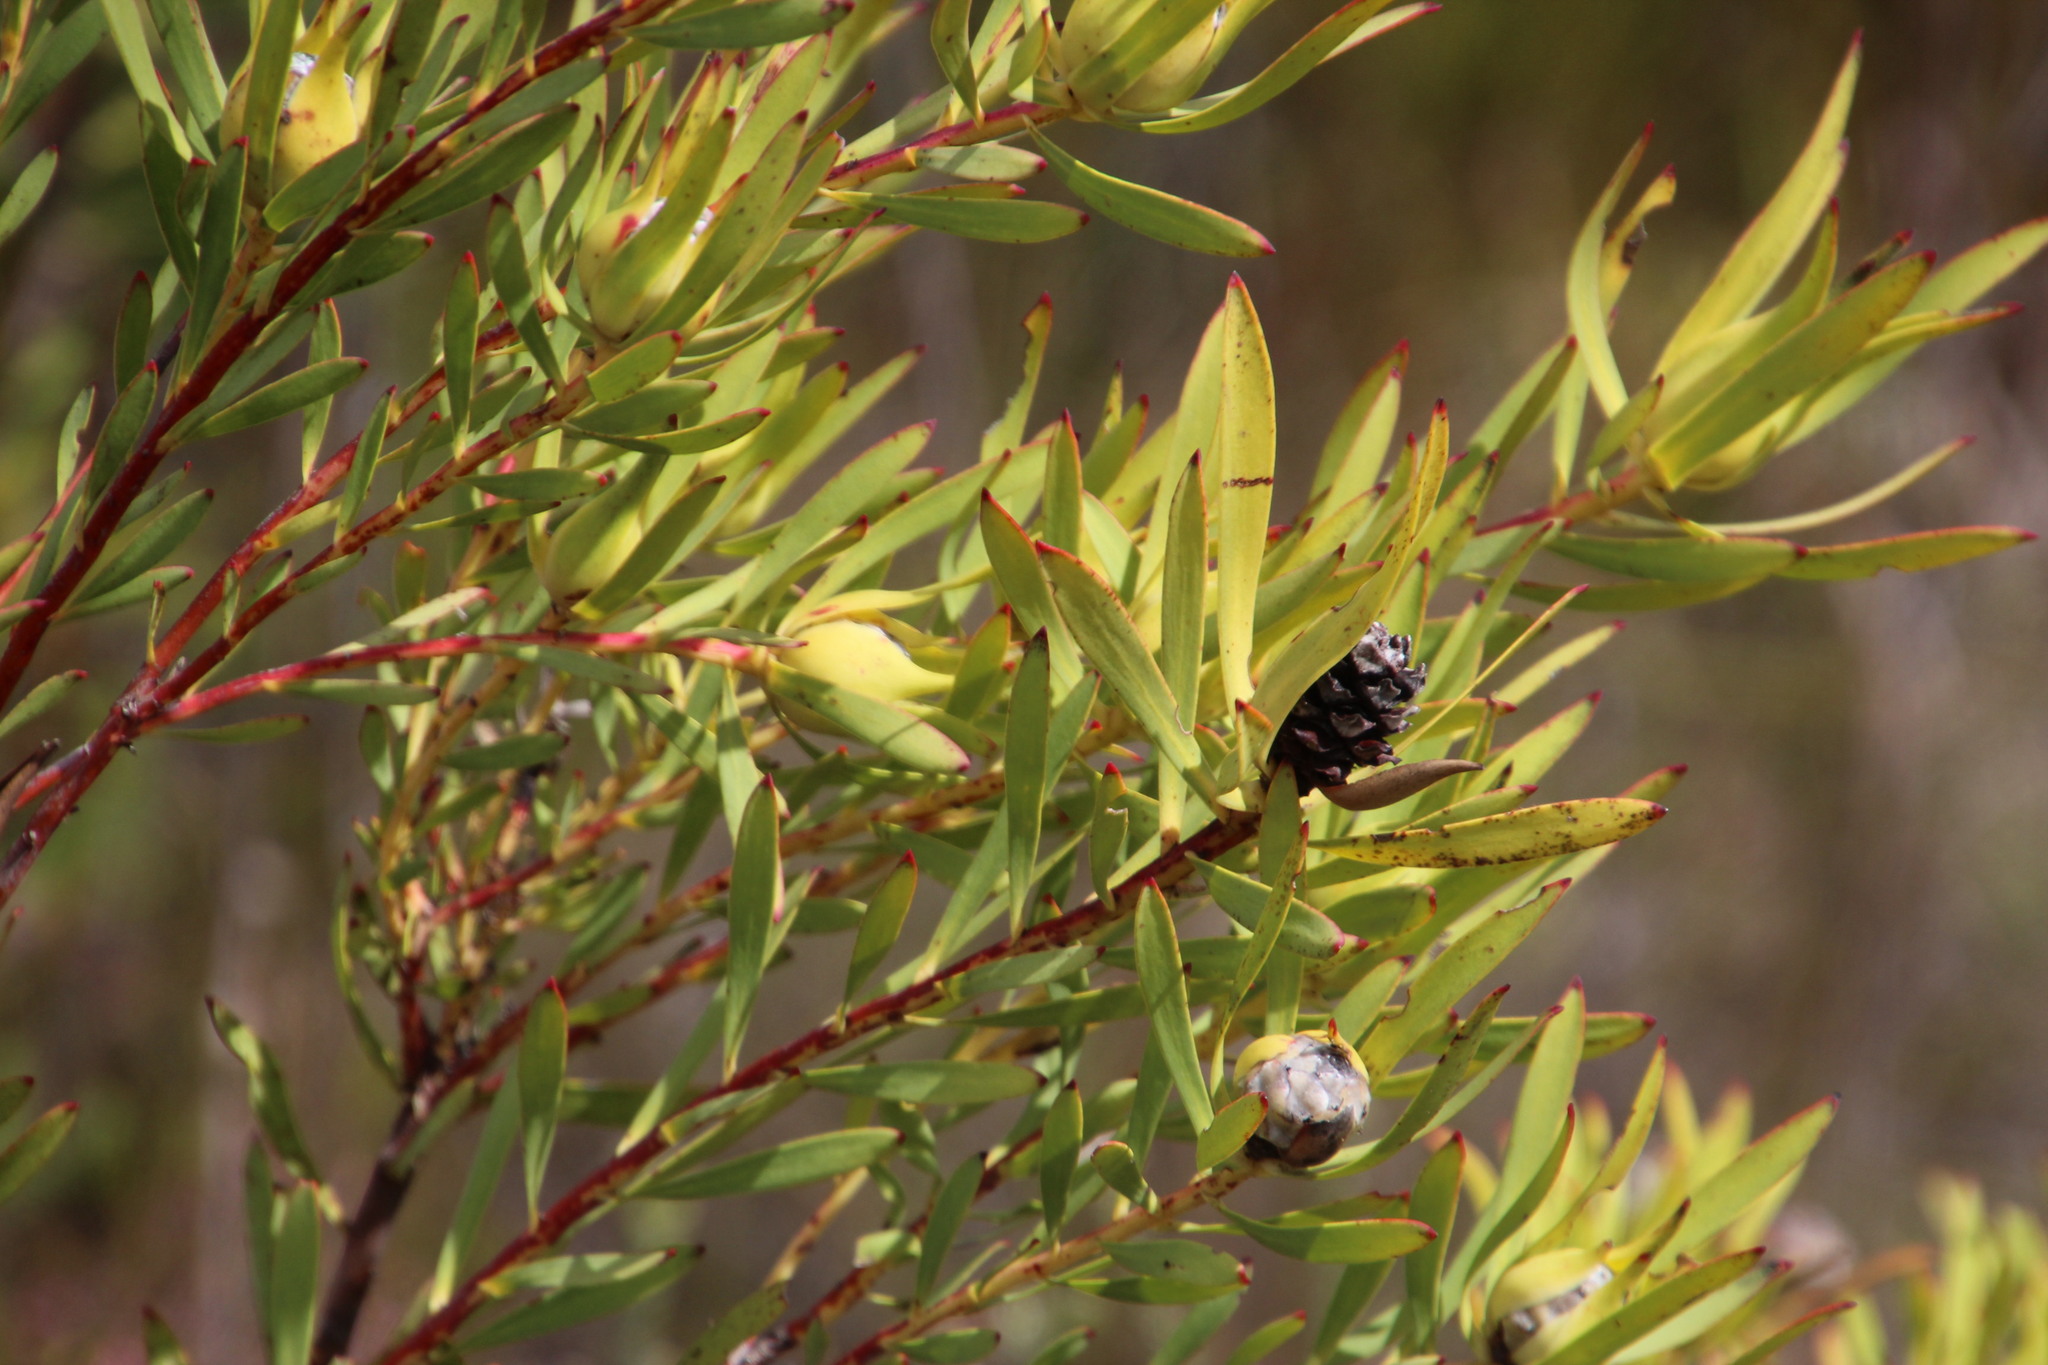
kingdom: Plantae
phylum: Tracheophyta
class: Magnoliopsida
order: Proteales
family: Proteaceae
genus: Leucadendron
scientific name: Leucadendron salignum
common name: Common sunshine conebush
